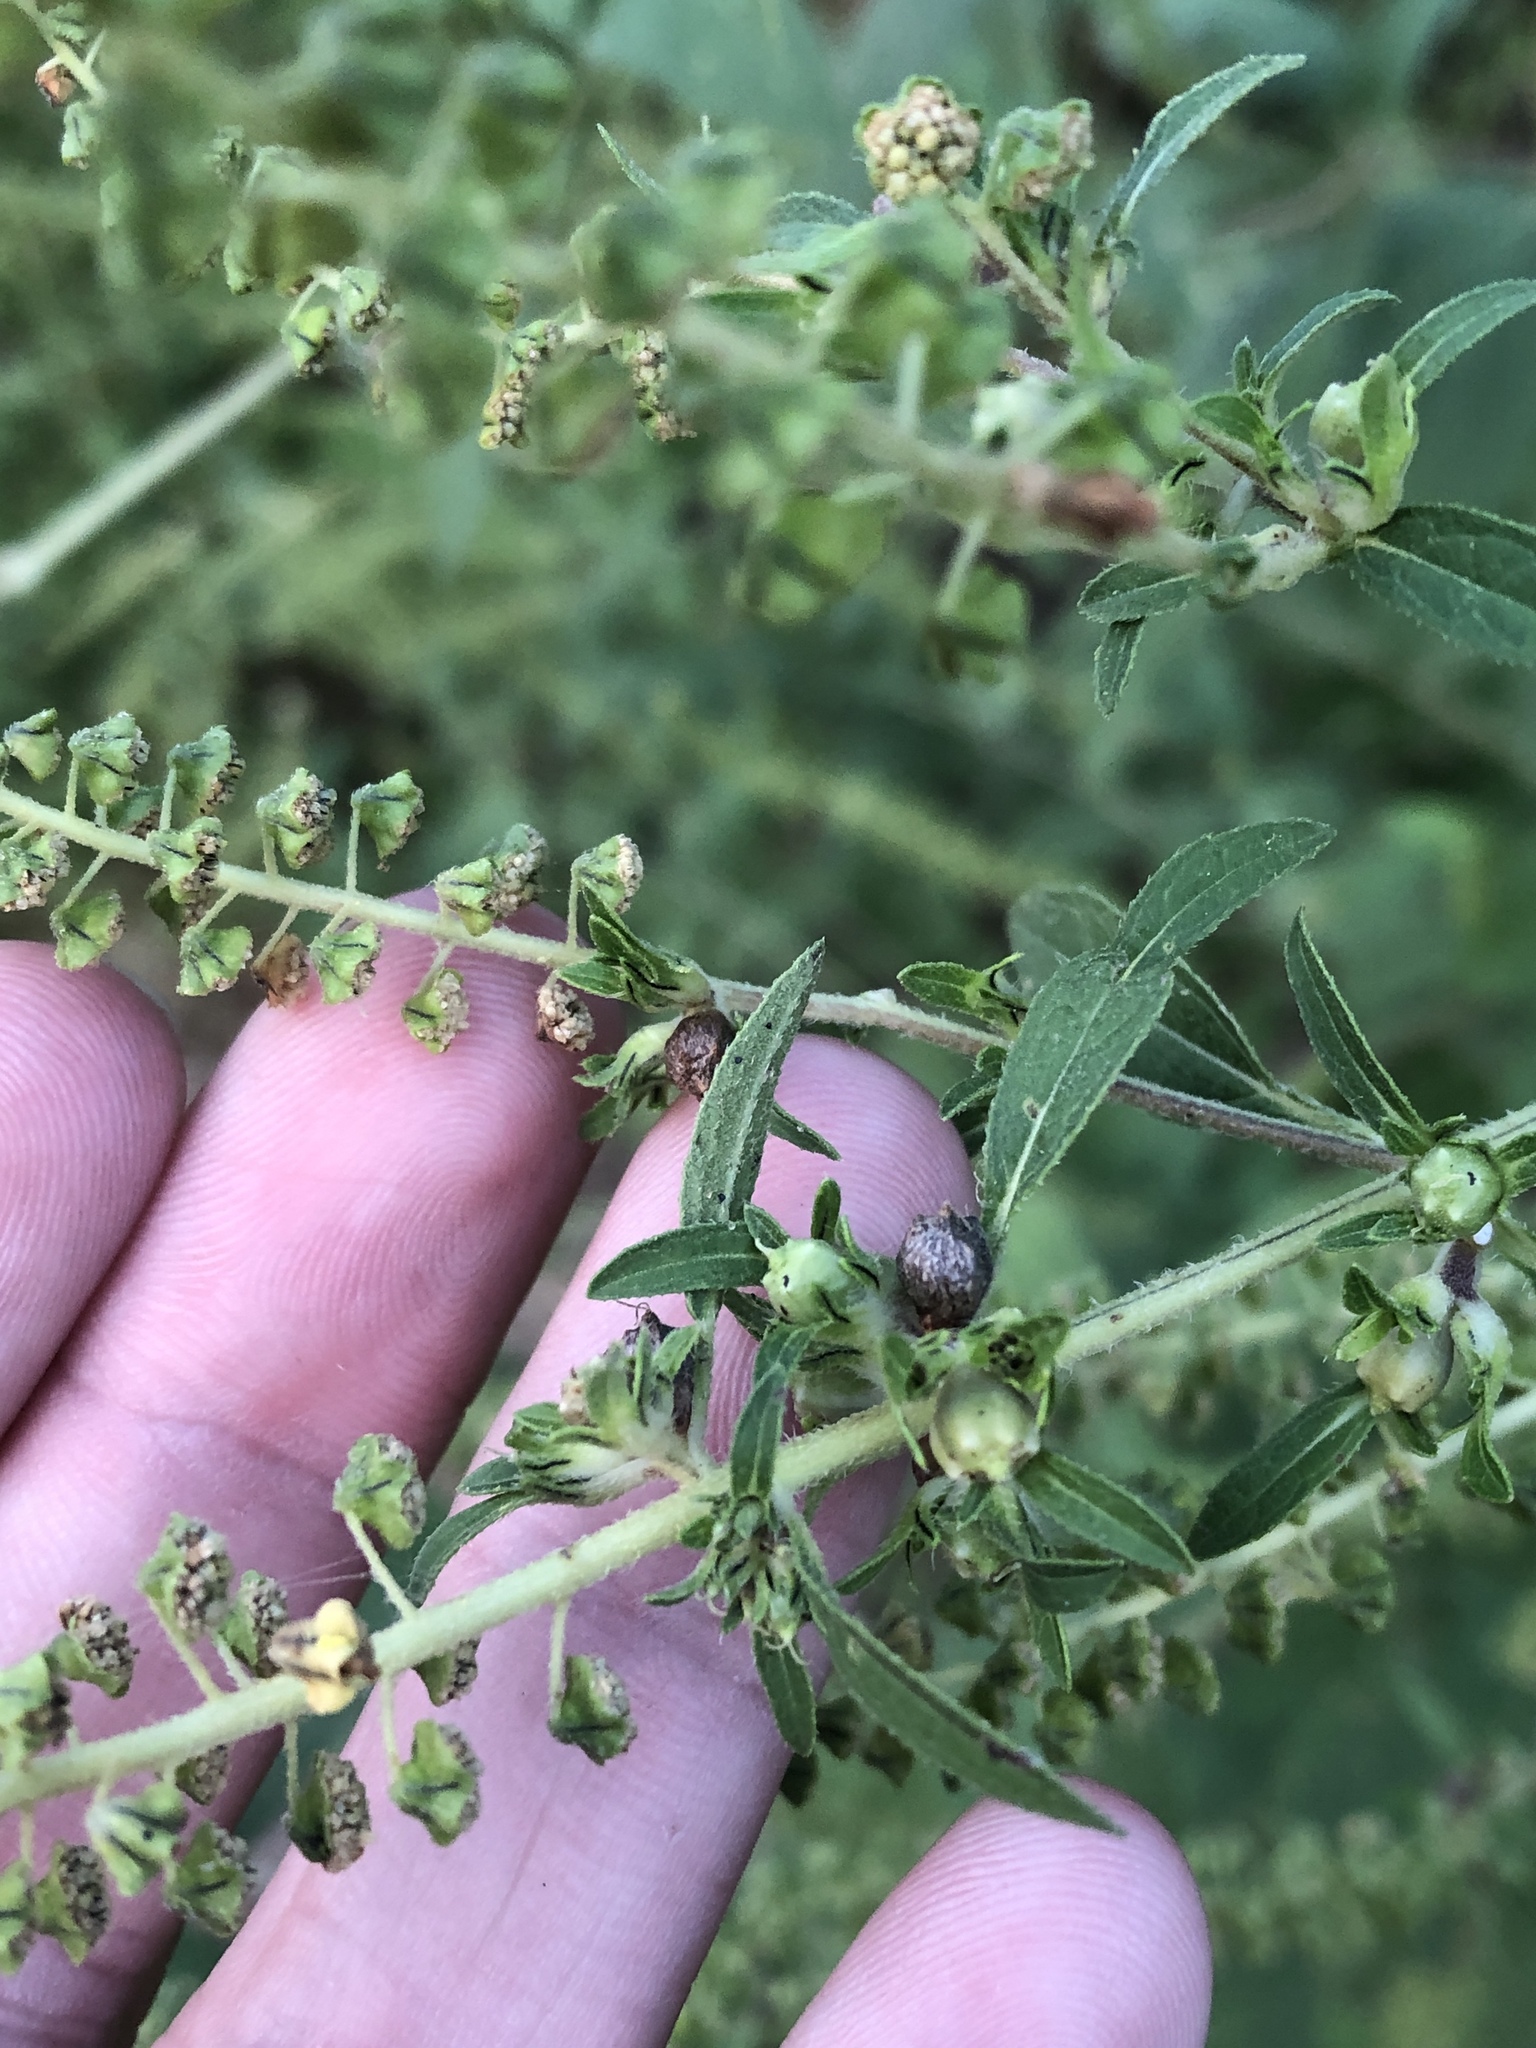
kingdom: Plantae
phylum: Tracheophyta
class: Magnoliopsida
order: Asterales
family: Asteraceae
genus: Ambrosia
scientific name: Ambrosia trifida
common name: Giant ragweed
